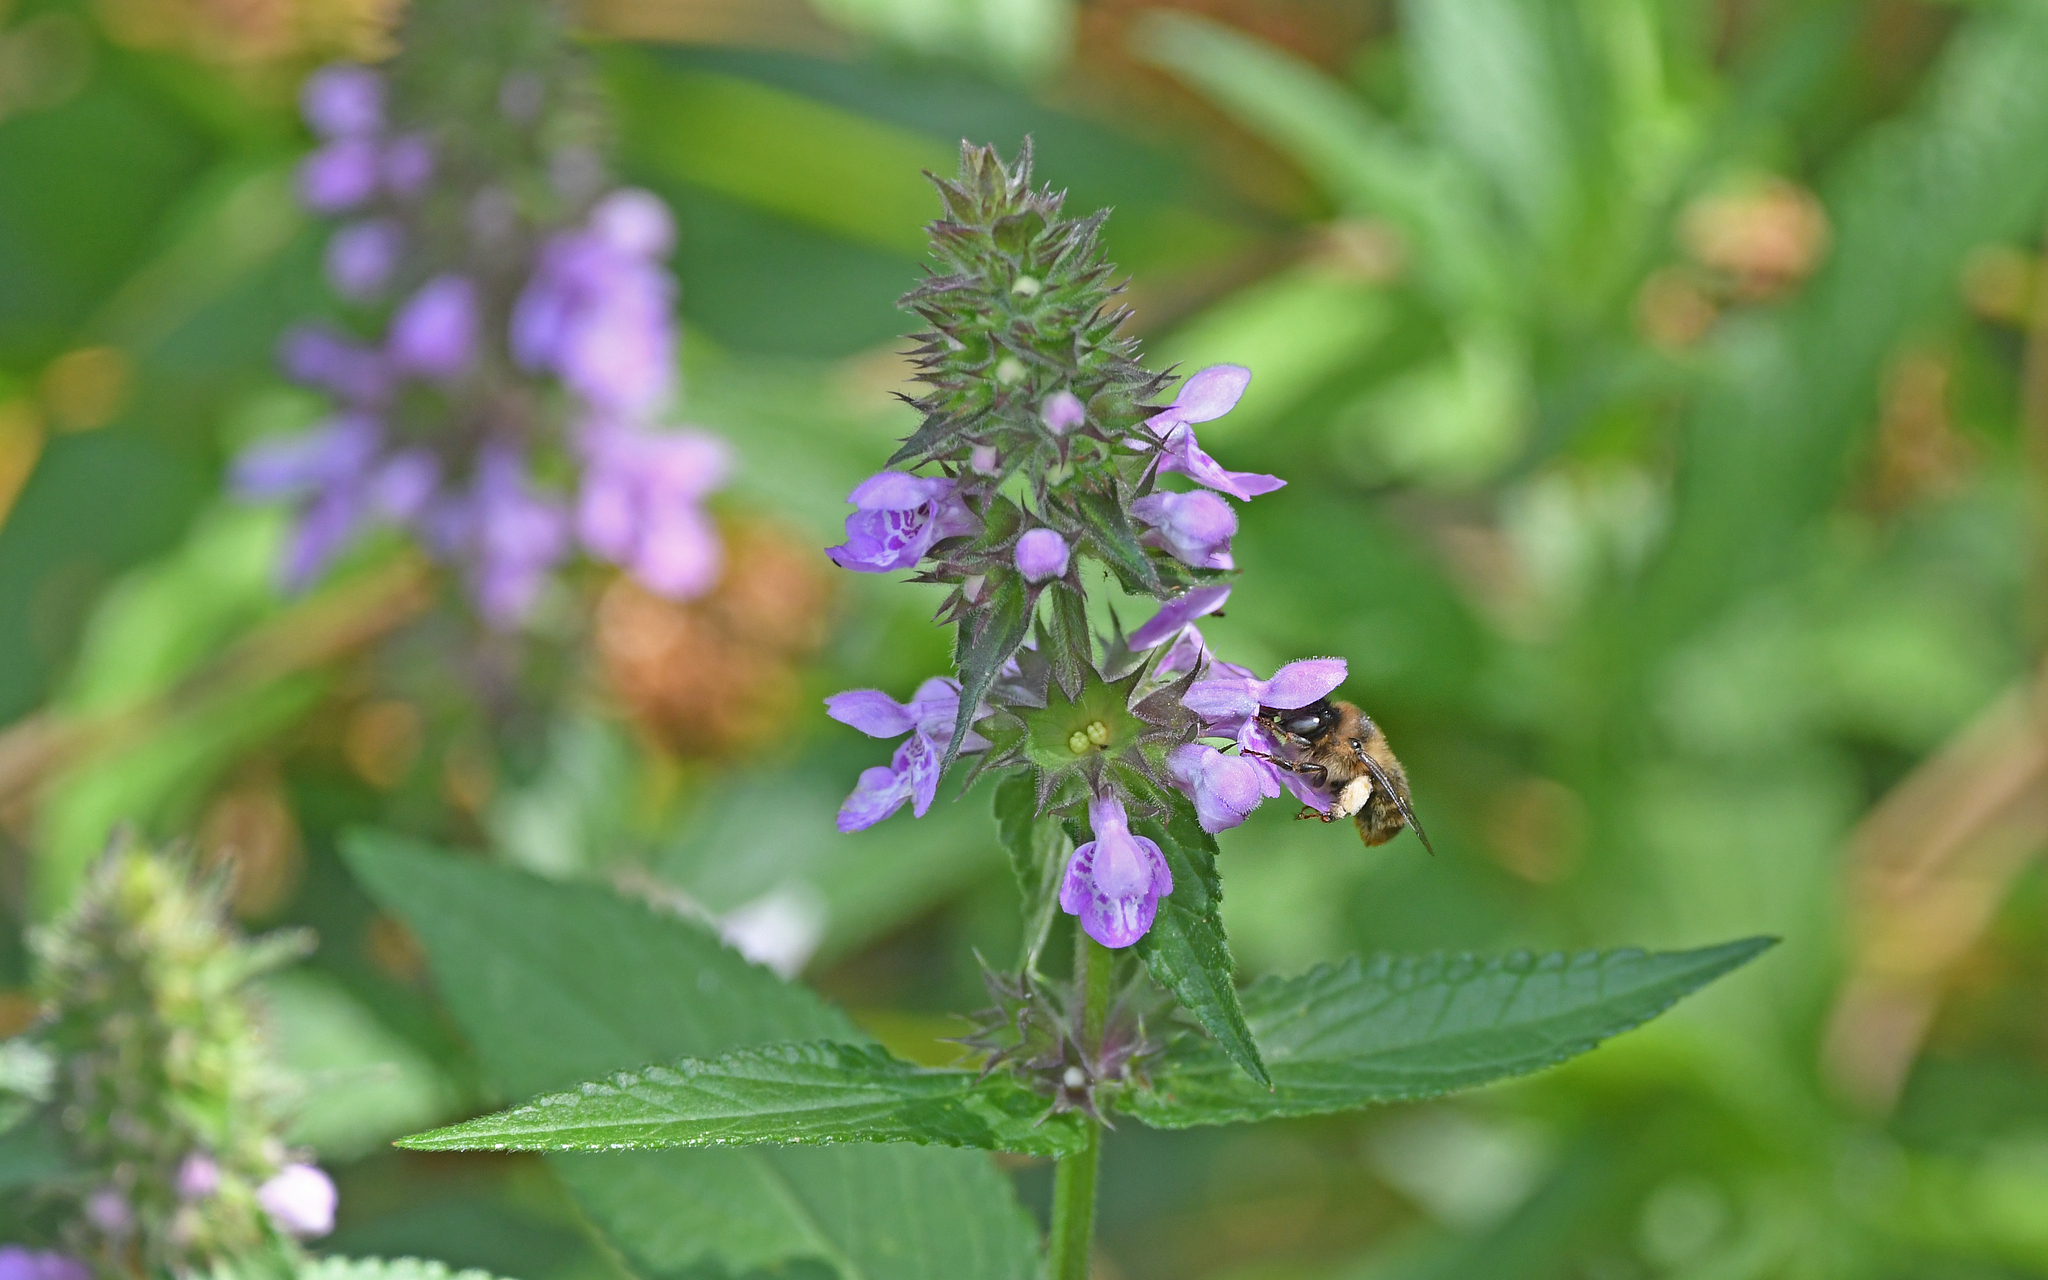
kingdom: Animalia
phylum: Arthropoda
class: Insecta
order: Hymenoptera
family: Apidae
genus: Anthophora
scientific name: Anthophora furcata
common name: Fork-tailed flower bee
